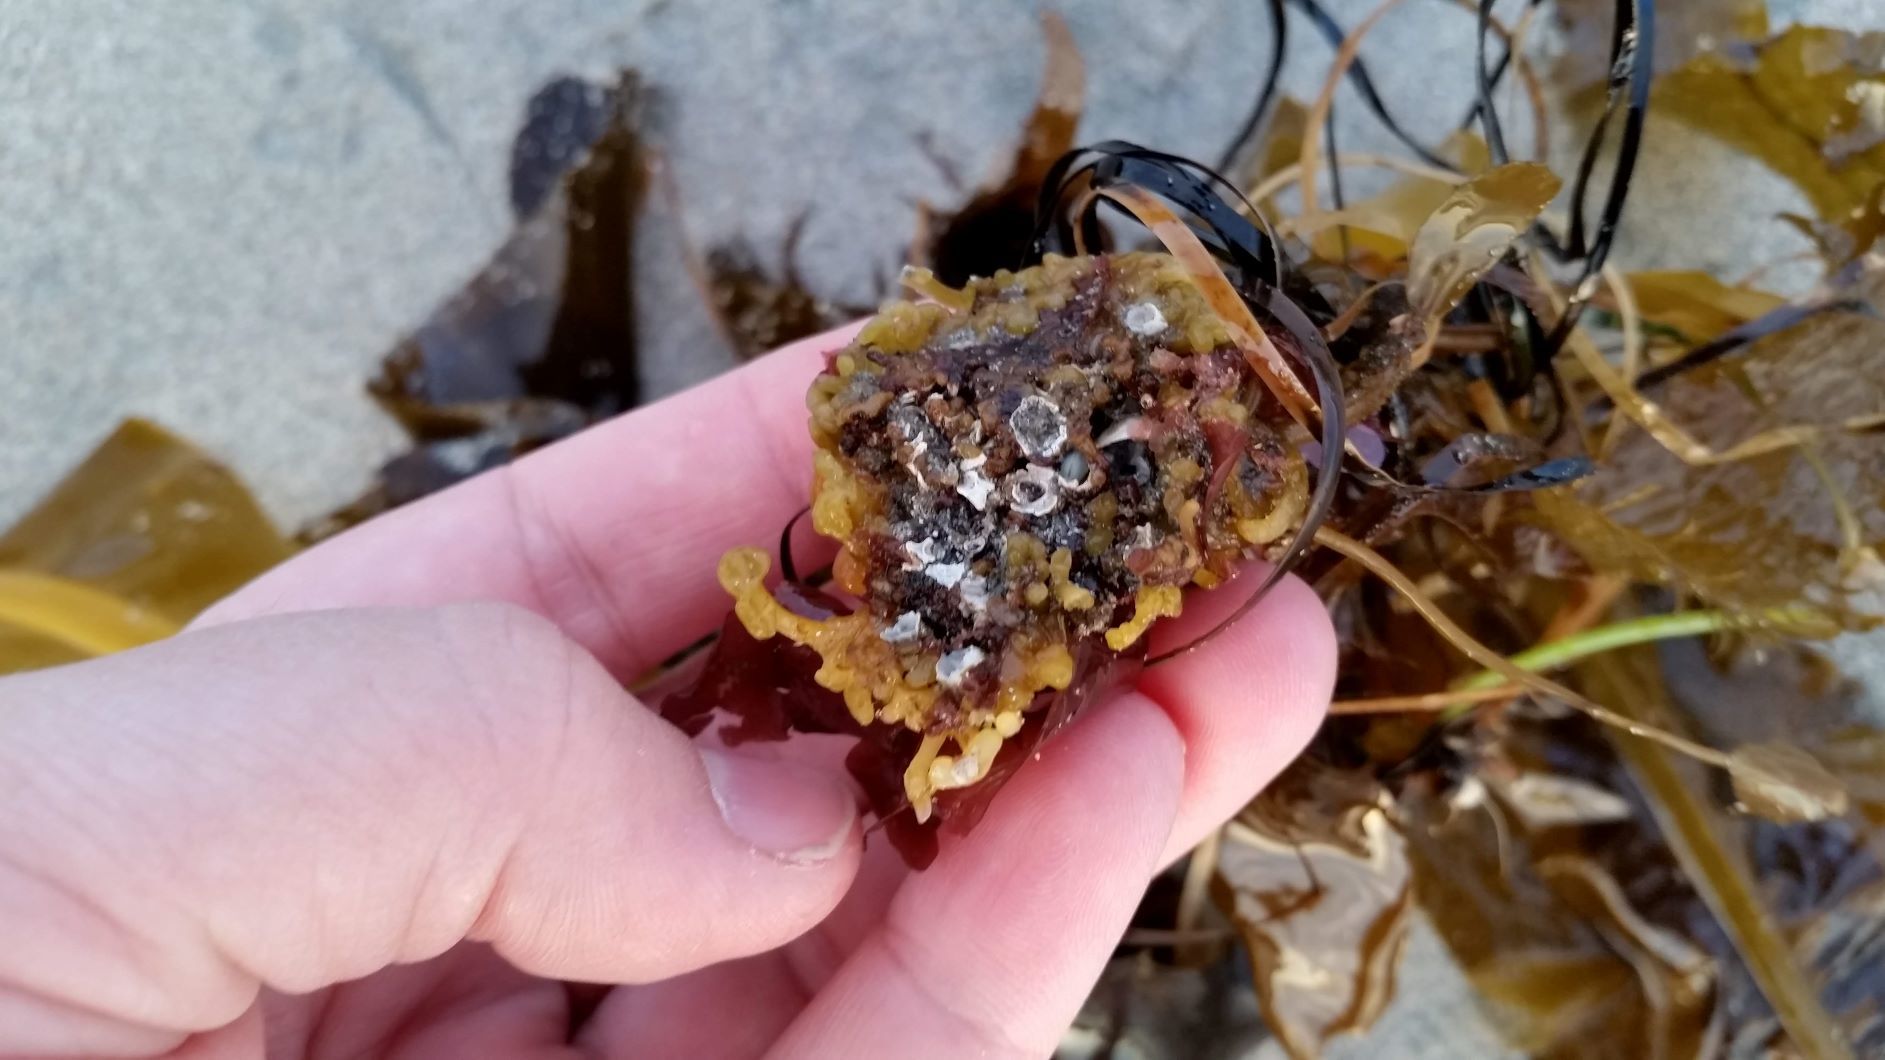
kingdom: Chromista
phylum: Ochrophyta
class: Phaeophyceae
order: Laminariales
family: Alariaceae
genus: Alaria
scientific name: Alaria marginata
